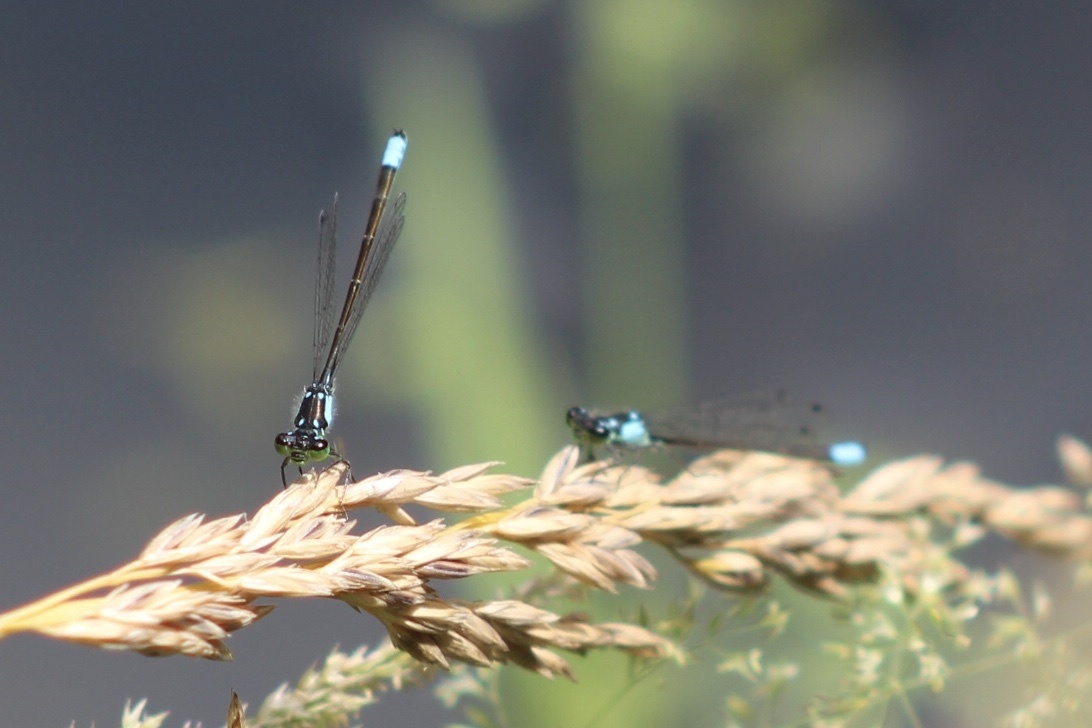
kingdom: Animalia
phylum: Arthropoda
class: Insecta
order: Odonata
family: Coenagrionidae
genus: Ischnura
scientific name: Ischnura cervula
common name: Pacific forktail
